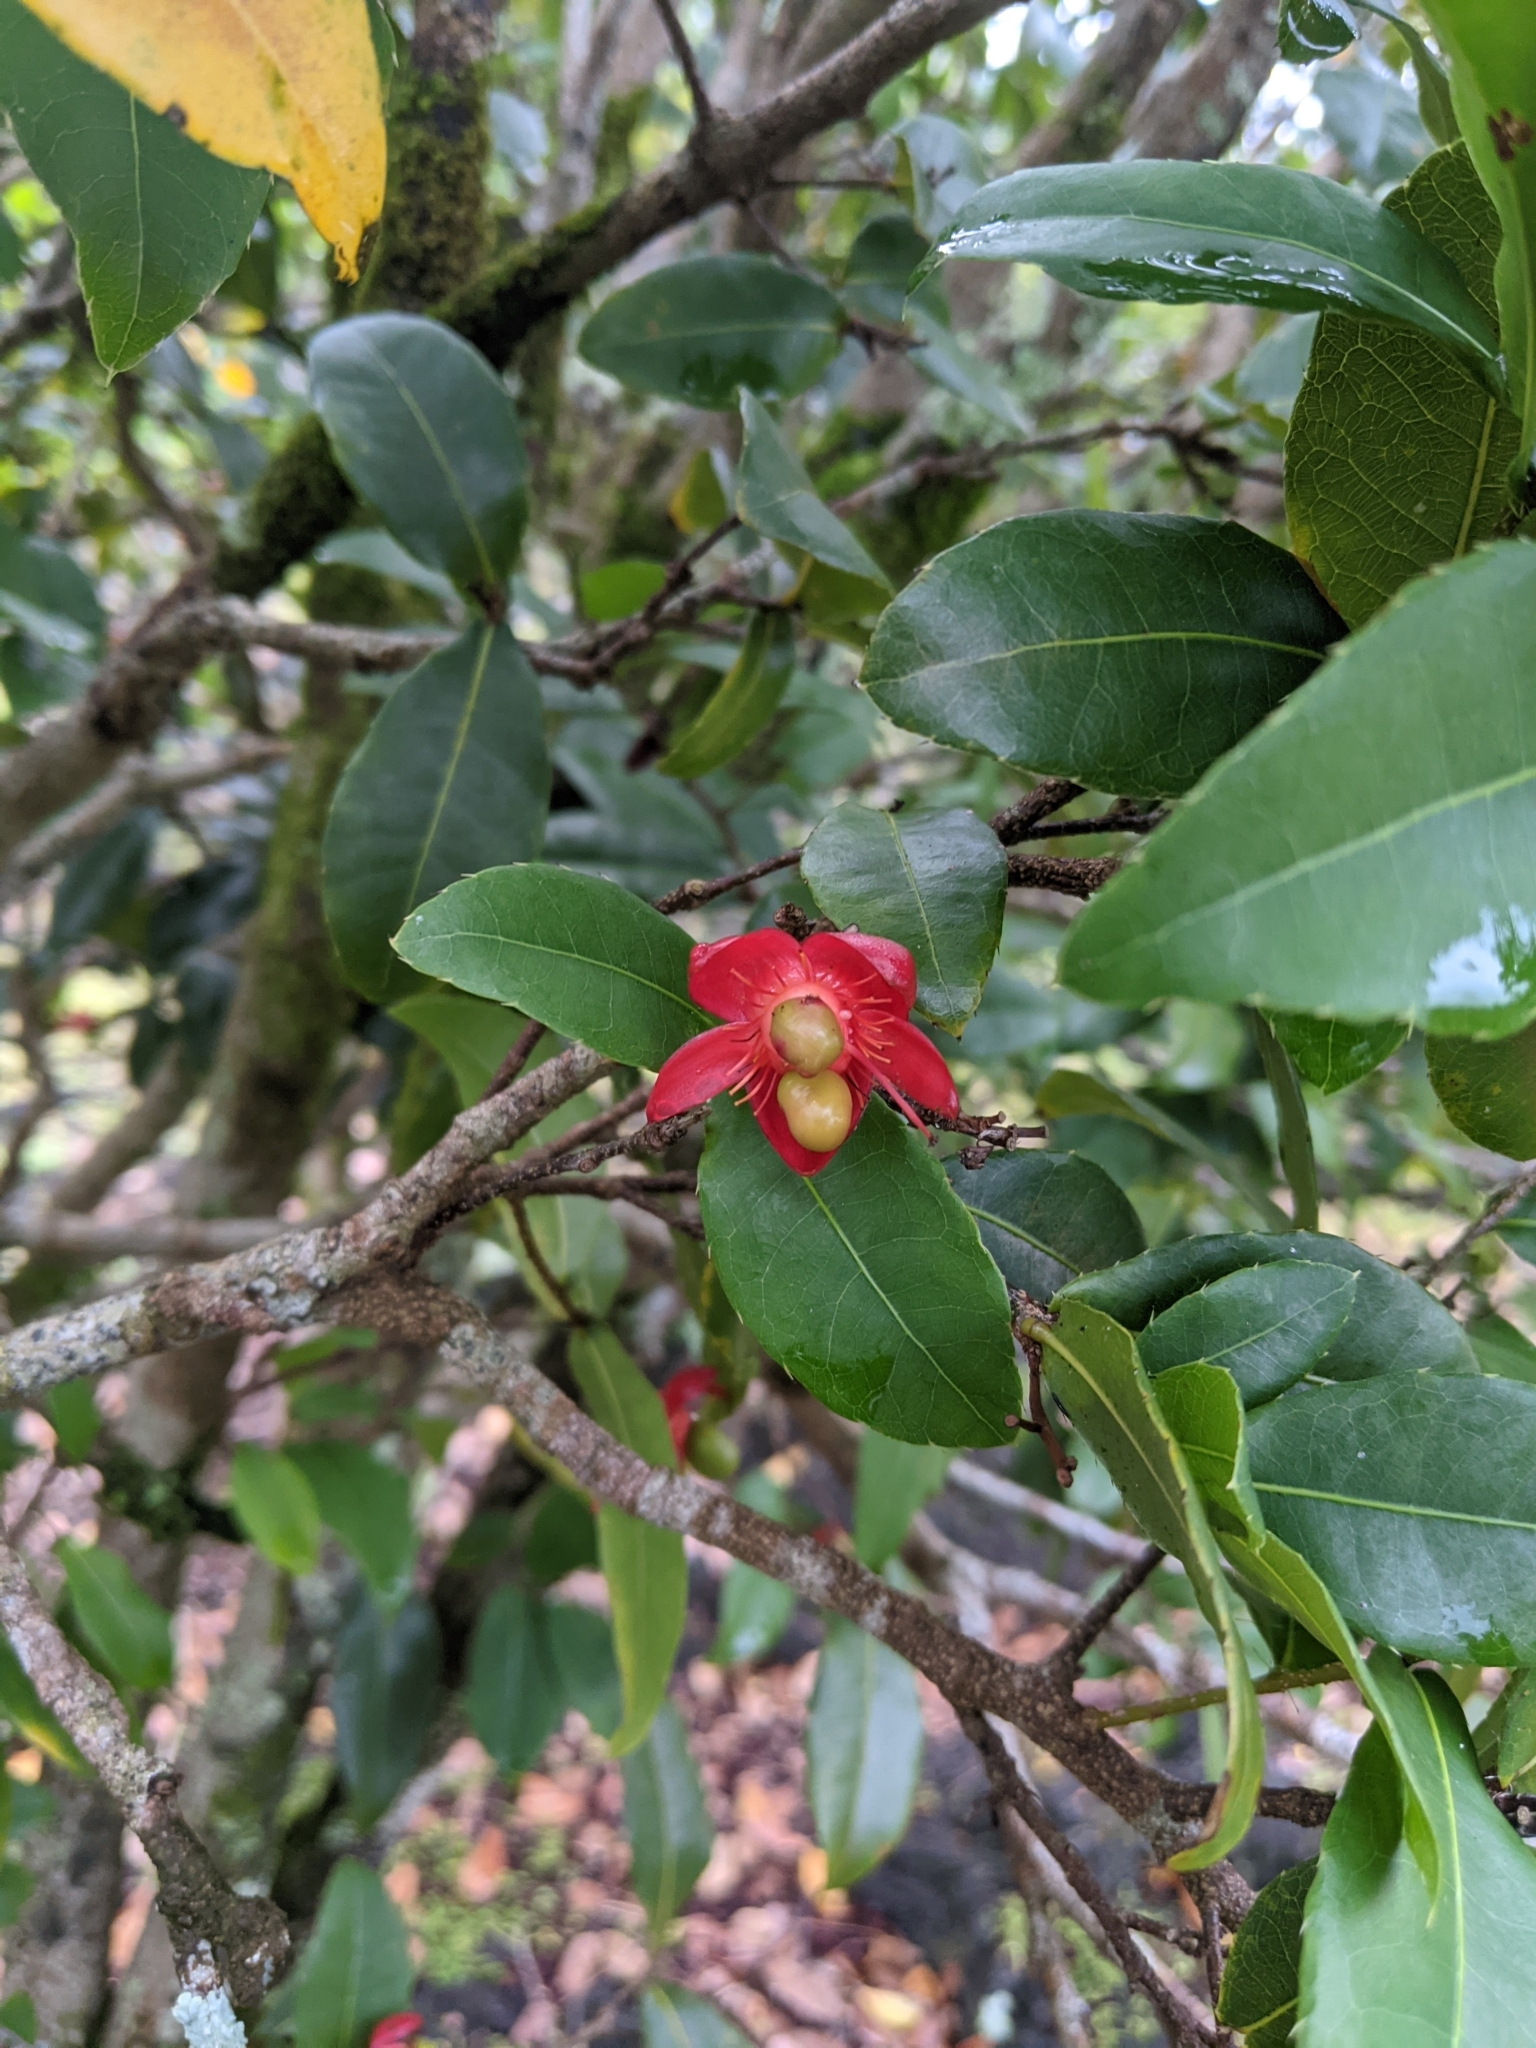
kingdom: Plantae
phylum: Tracheophyta
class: Magnoliopsida
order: Malpighiales
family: Ochnaceae
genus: Ochna
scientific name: Ochna thomasiana
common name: Thomas' bird's-eye bush
